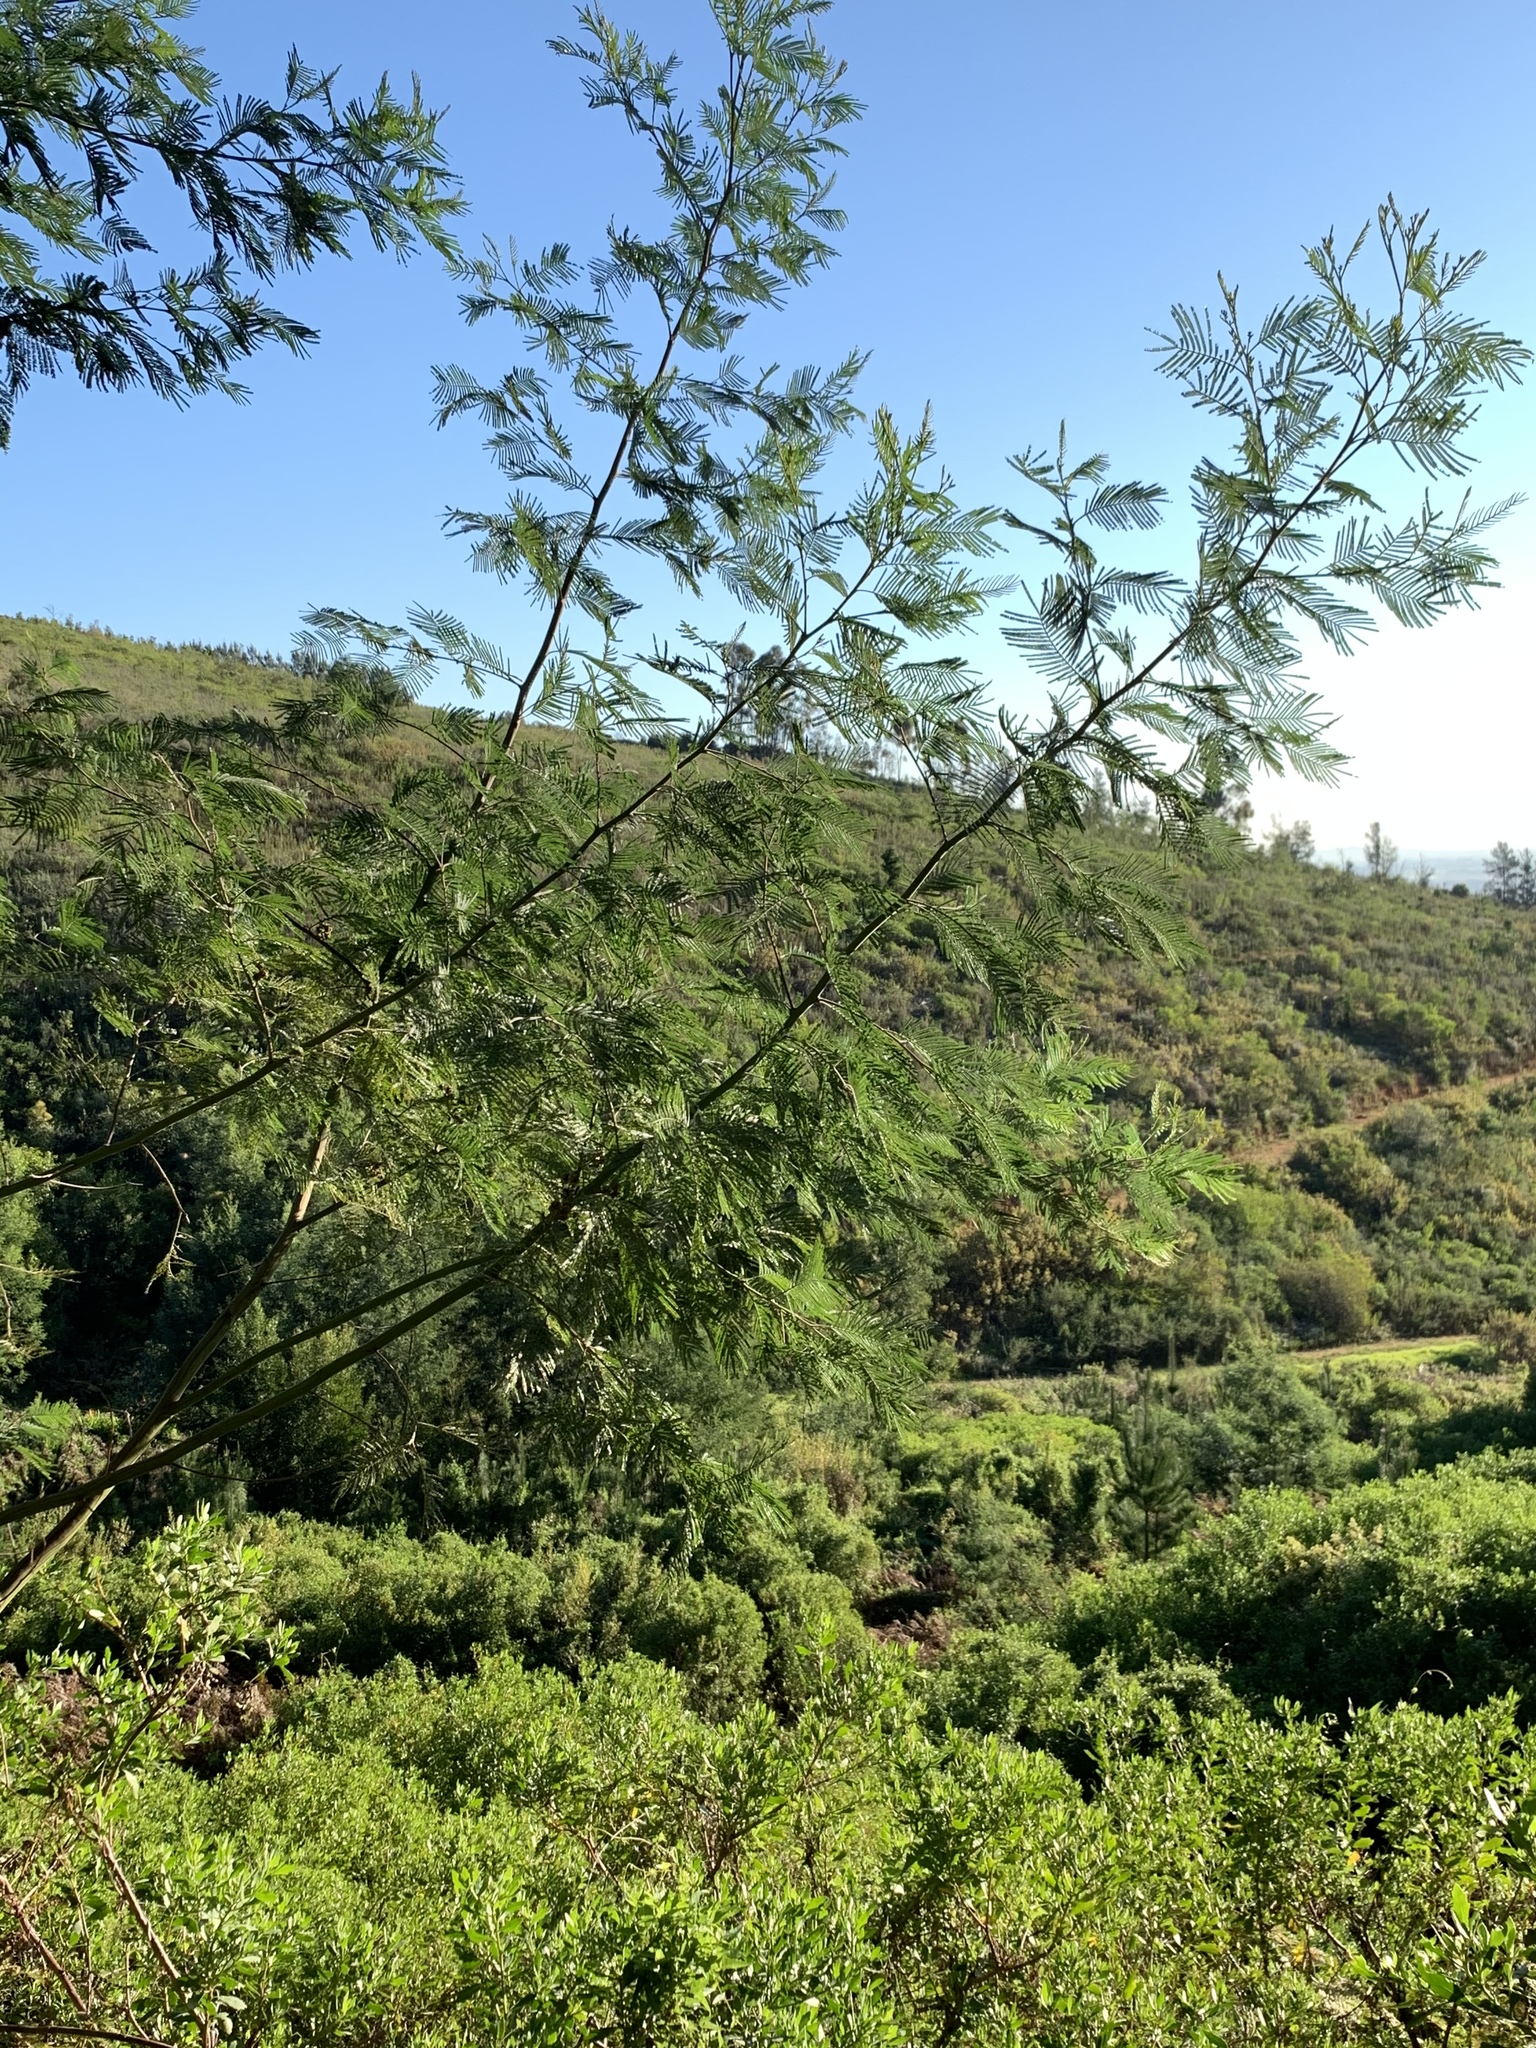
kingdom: Plantae
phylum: Tracheophyta
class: Magnoliopsida
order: Fabales
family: Fabaceae
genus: Acacia
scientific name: Acacia mearnsii
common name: Black wattle
